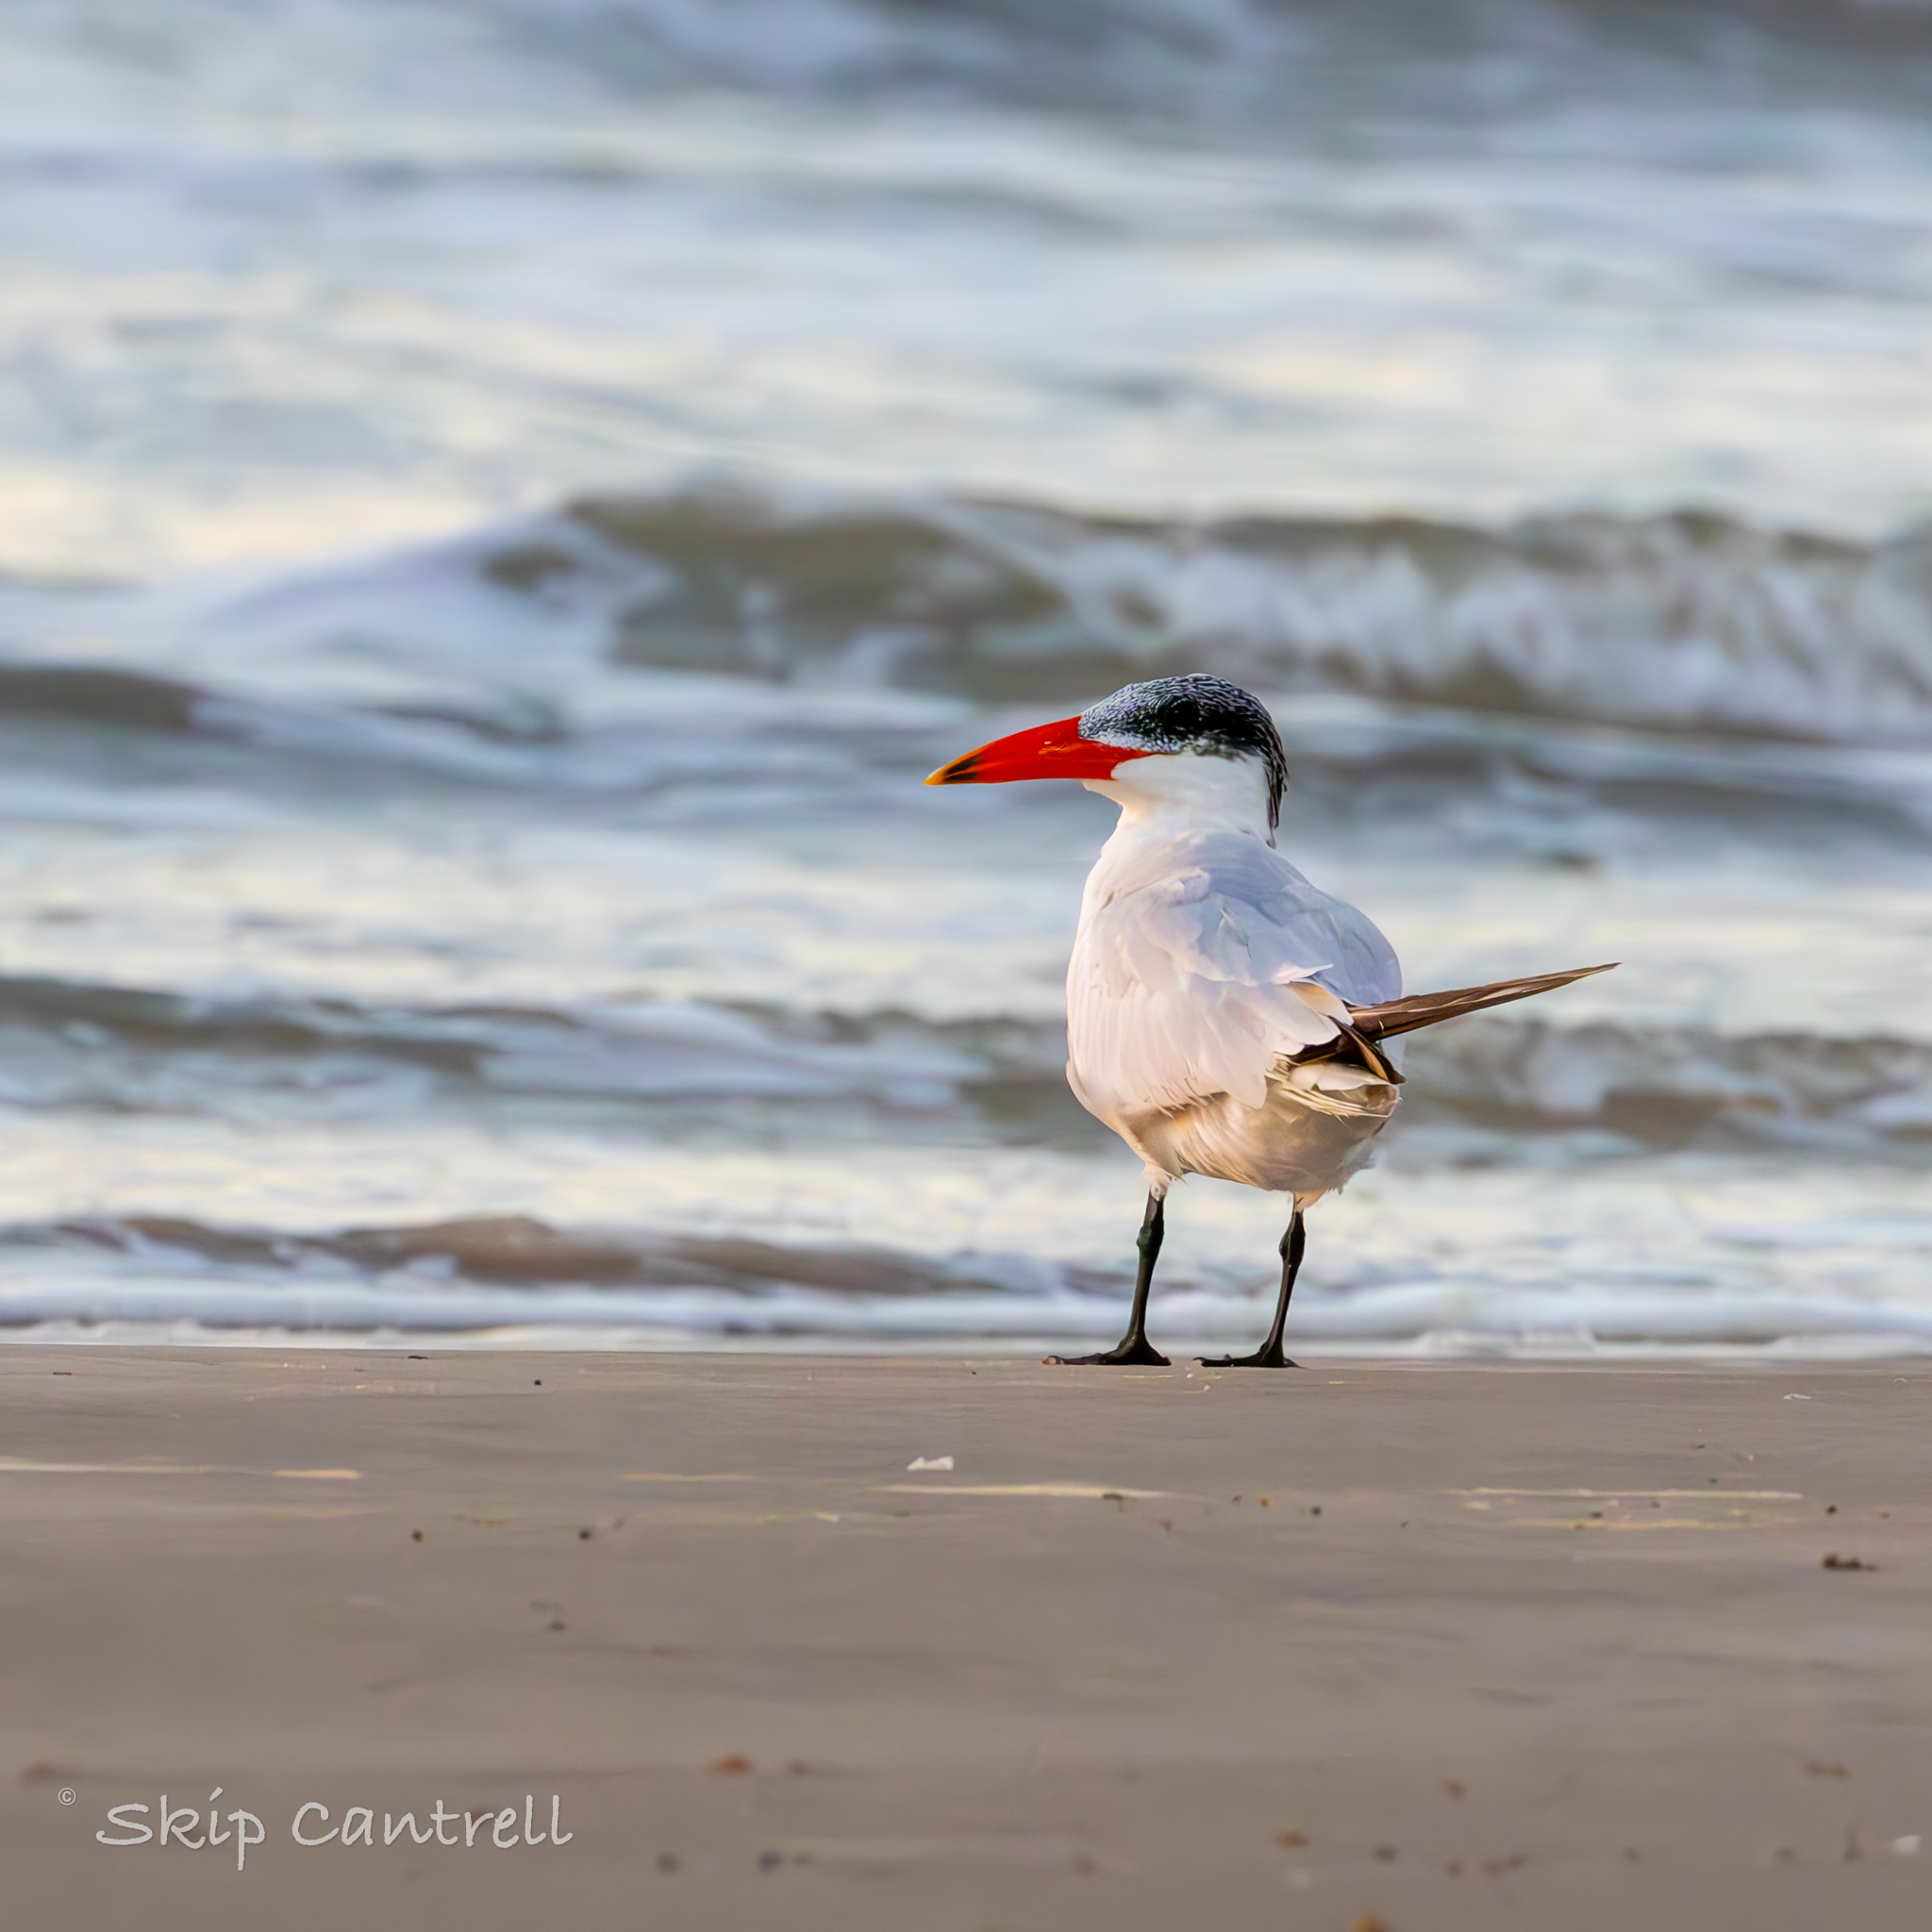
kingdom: Animalia
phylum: Chordata
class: Aves
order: Charadriiformes
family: Laridae
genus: Hydroprogne
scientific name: Hydroprogne caspia
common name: Caspian tern
